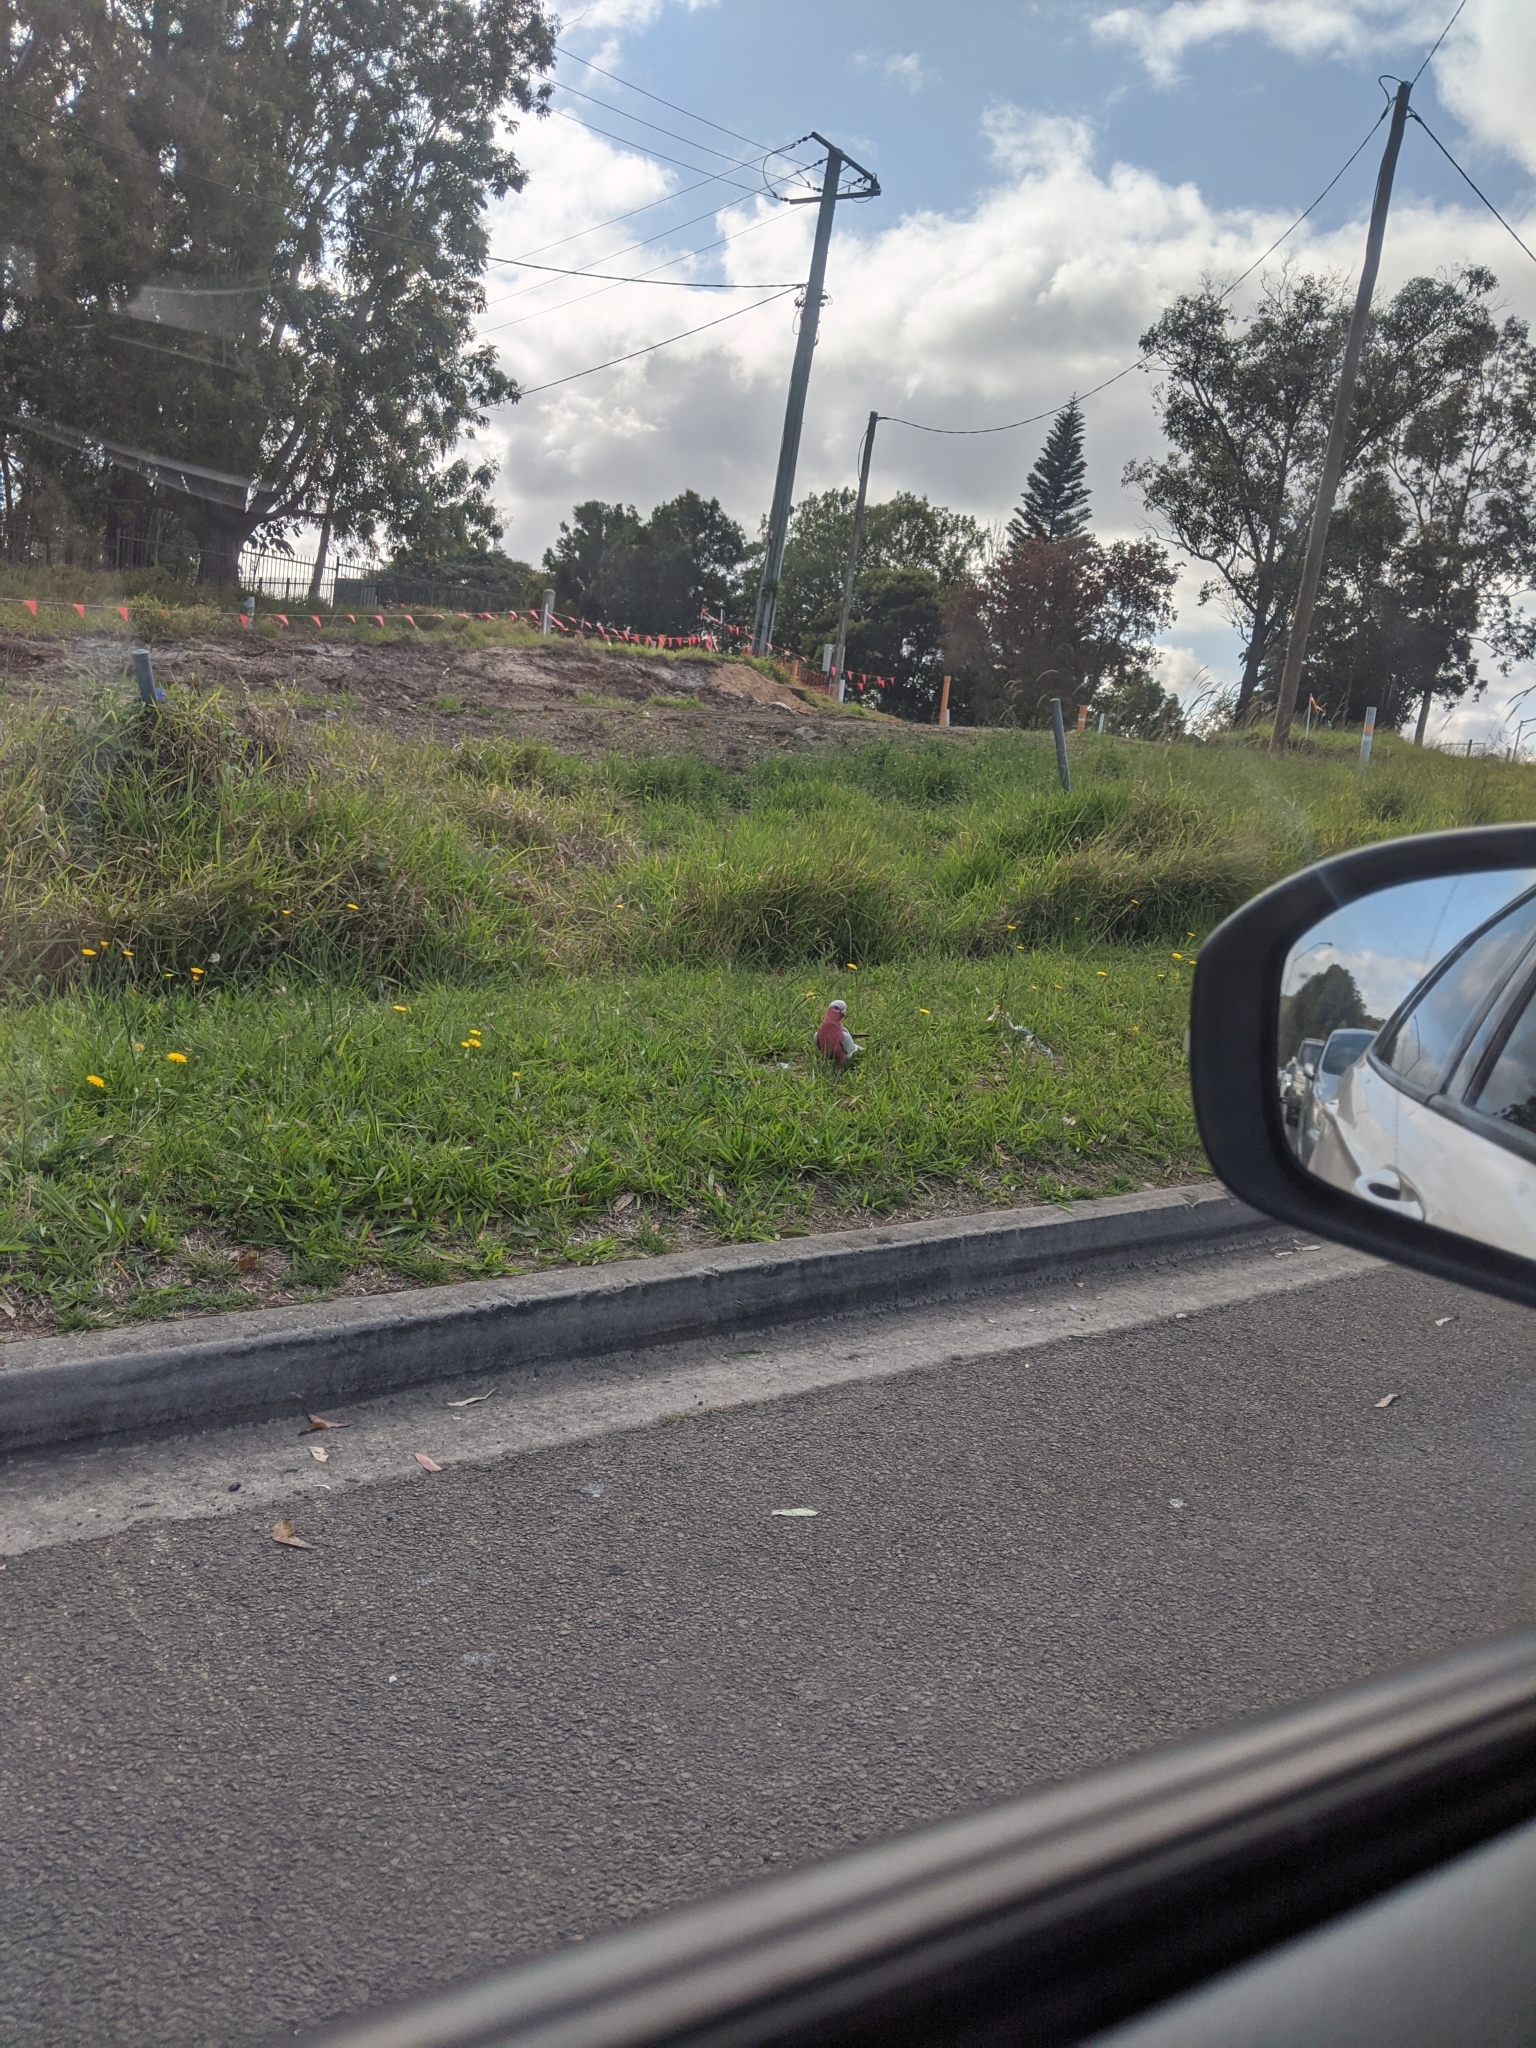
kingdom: Animalia
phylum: Chordata
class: Aves
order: Psittaciformes
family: Psittacidae
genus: Eolophus
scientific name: Eolophus roseicapilla
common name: Galah
